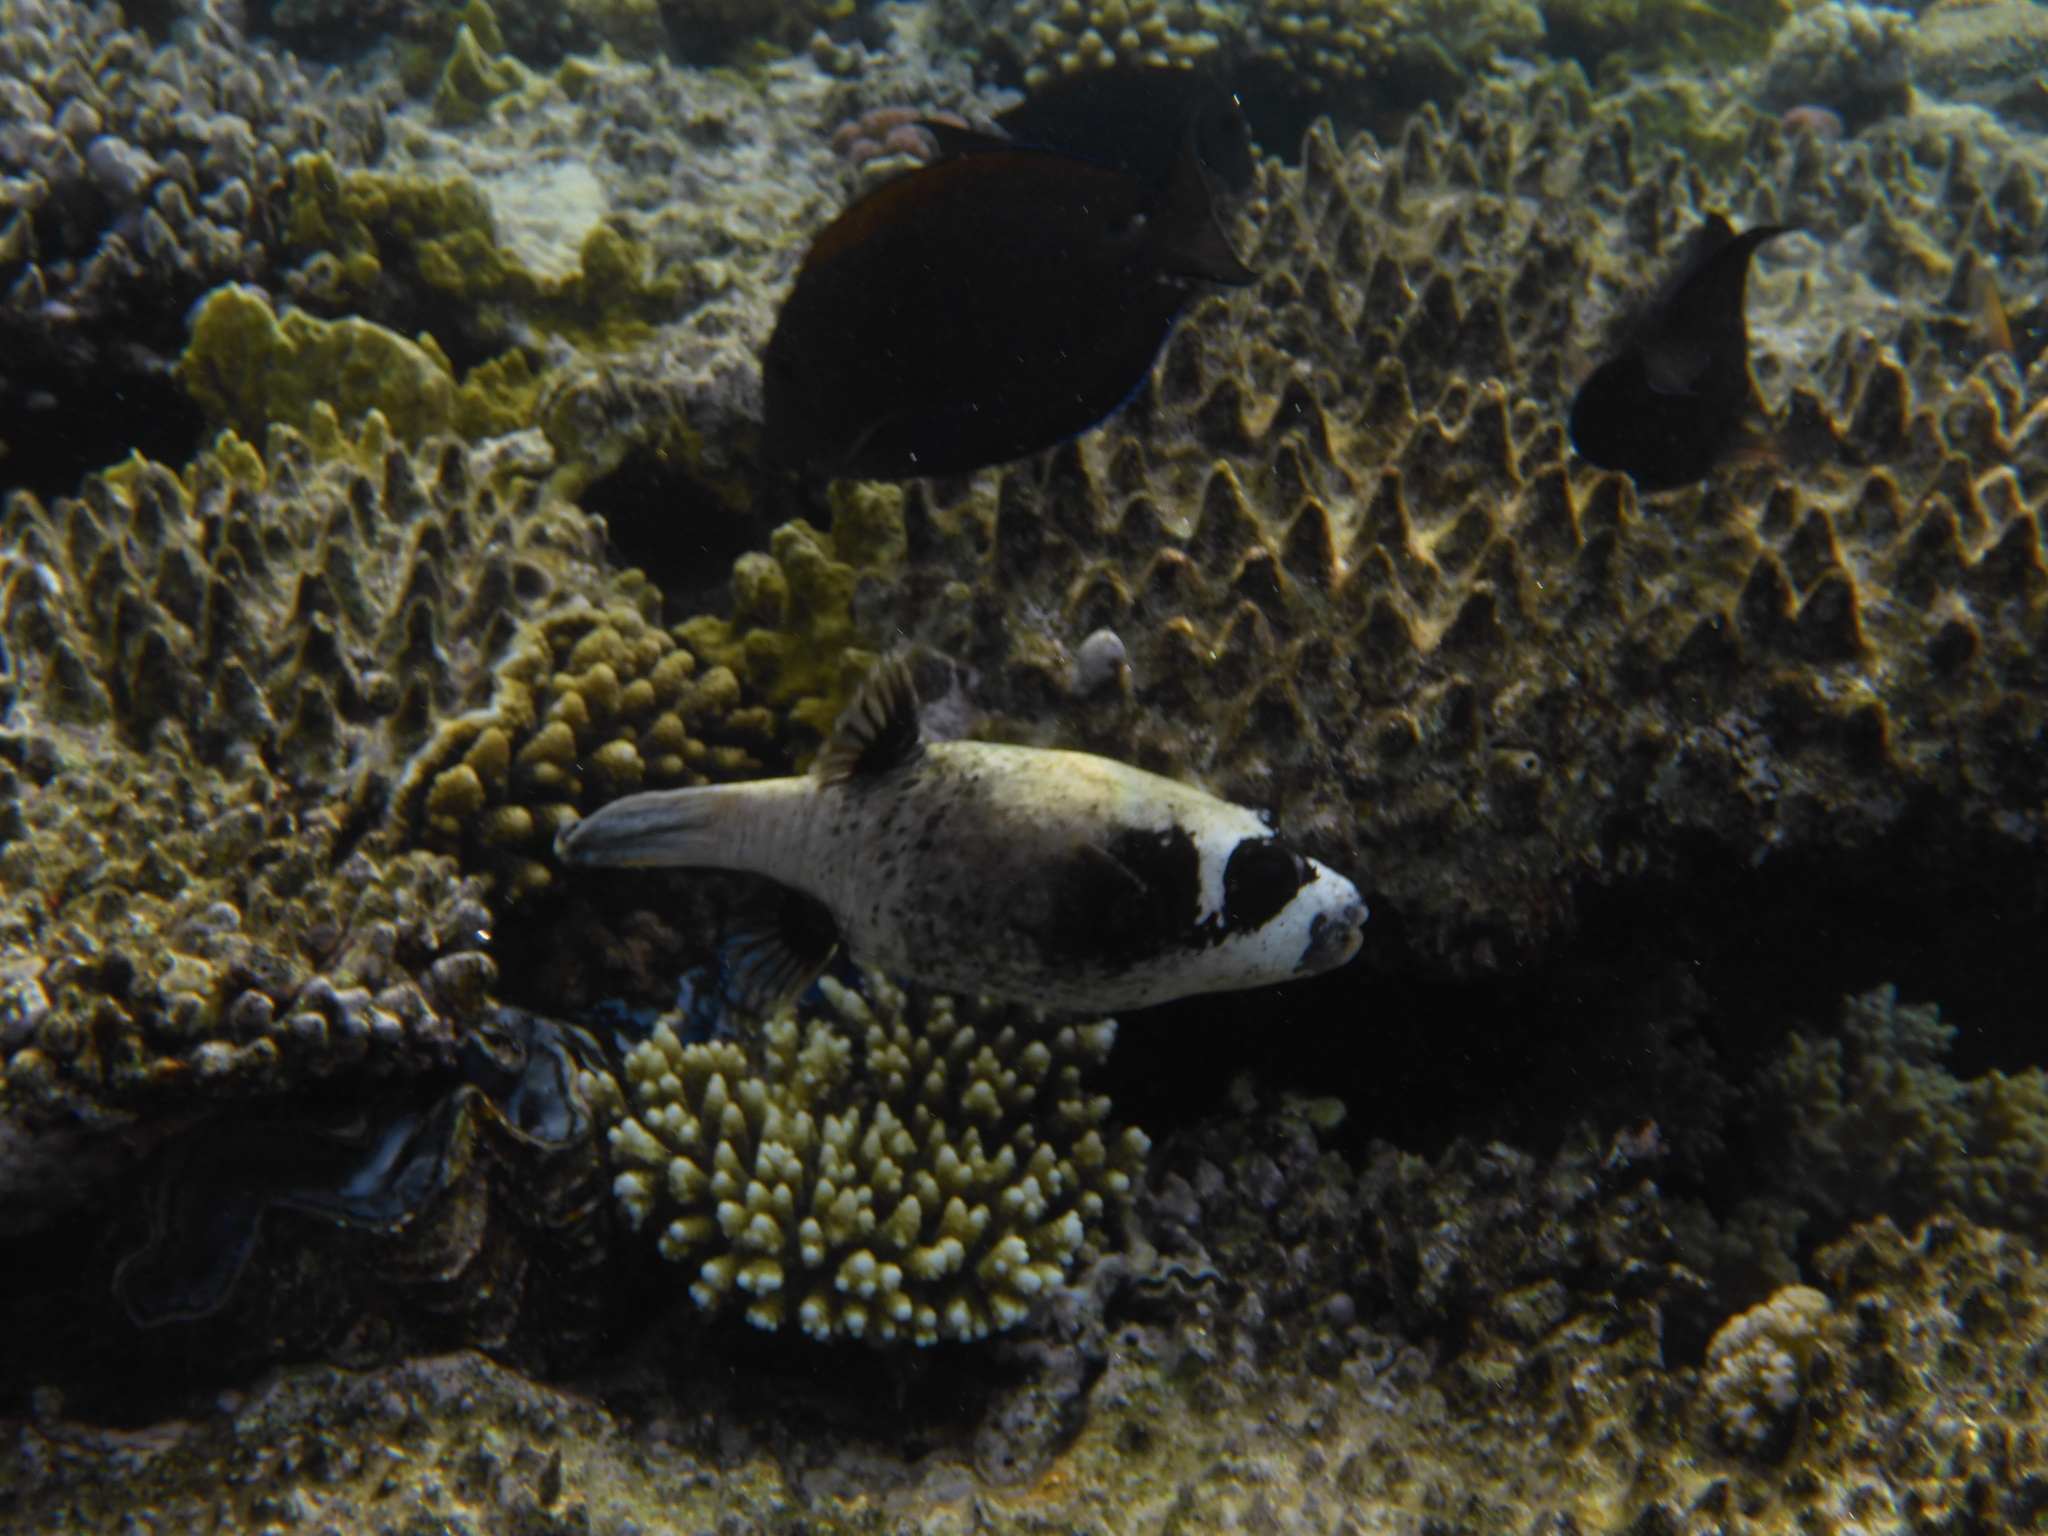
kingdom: Animalia
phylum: Chordata
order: Tetraodontiformes
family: Tetraodontidae
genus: Arothron
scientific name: Arothron diadematus
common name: Masked puffer
